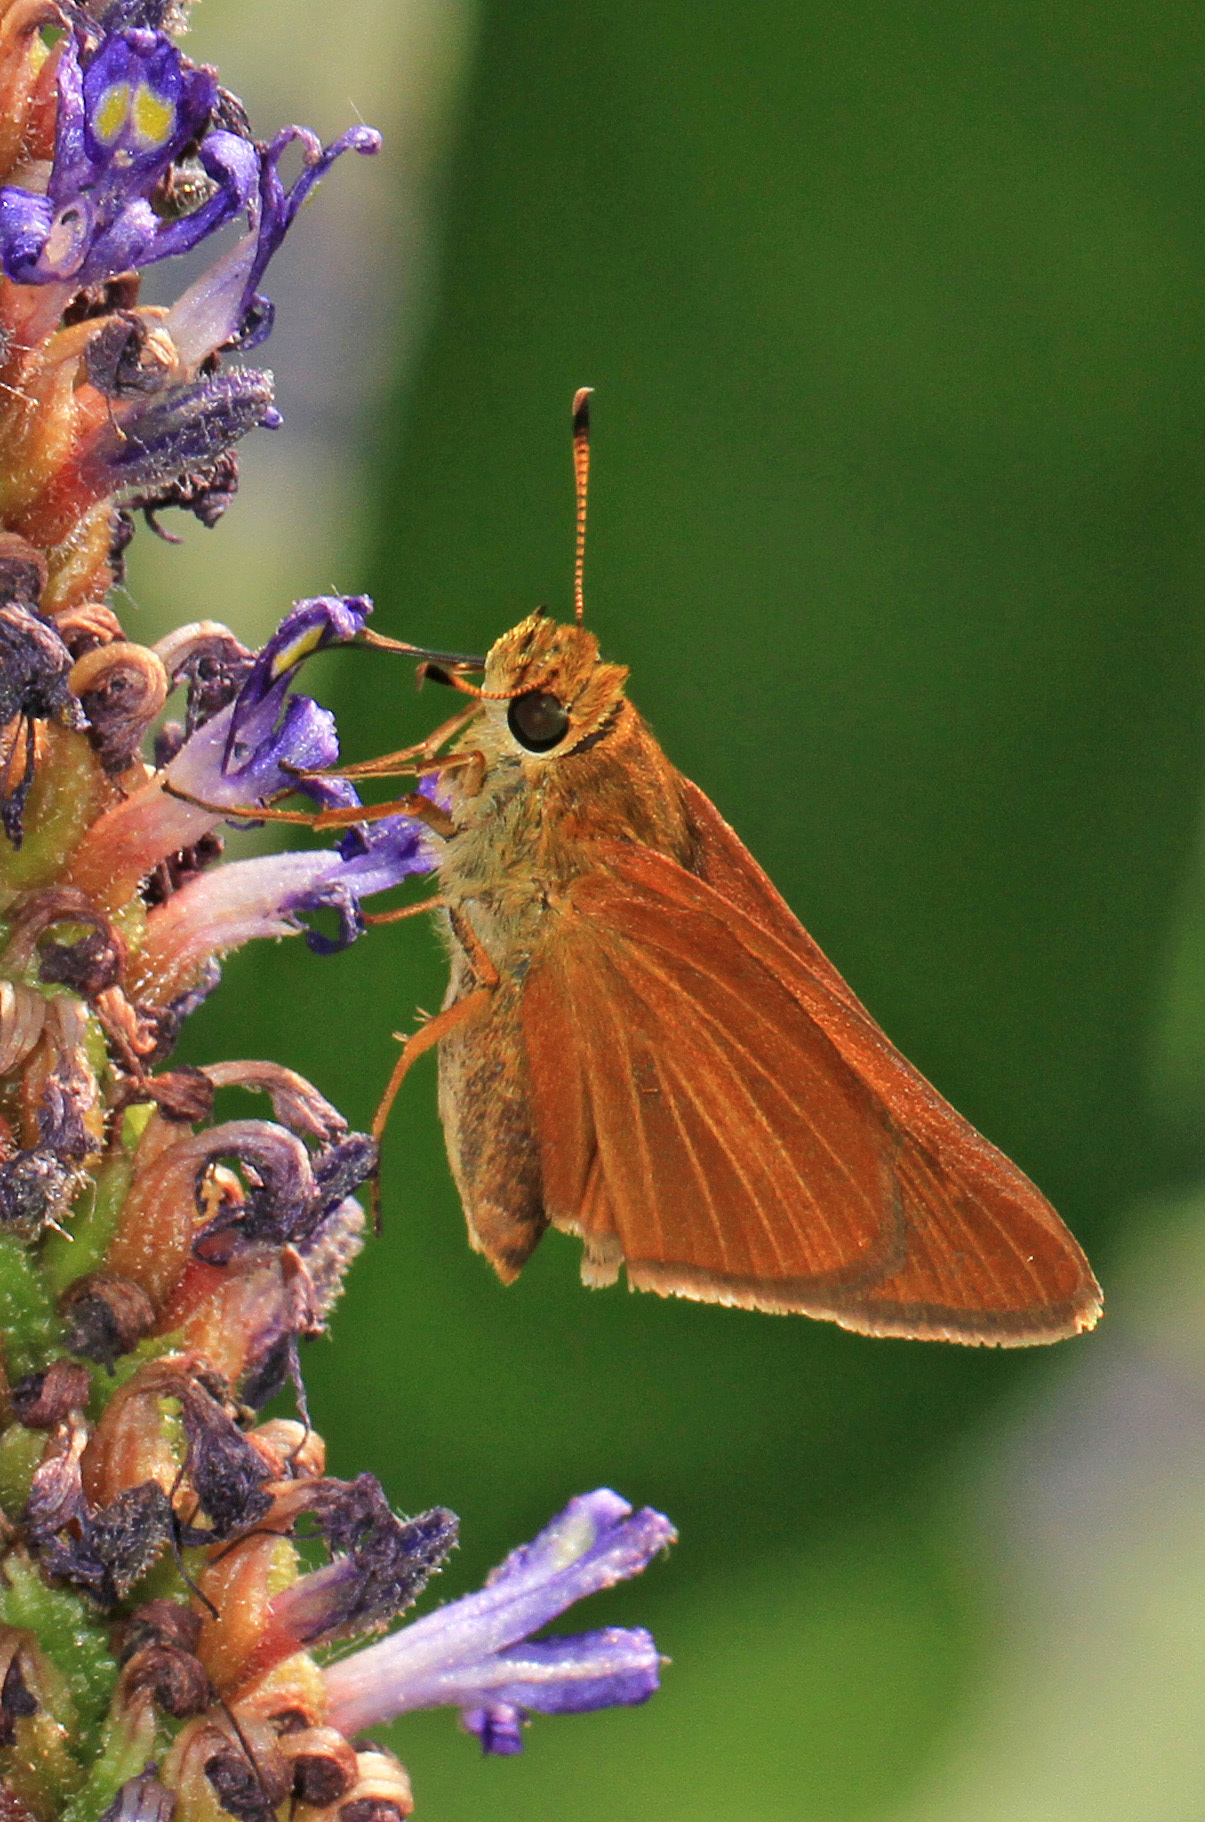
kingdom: Animalia
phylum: Arthropoda
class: Insecta
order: Lepidoptera
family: Hesperiidae
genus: Euphyes
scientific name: Euphyes dion
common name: Dion skipper
